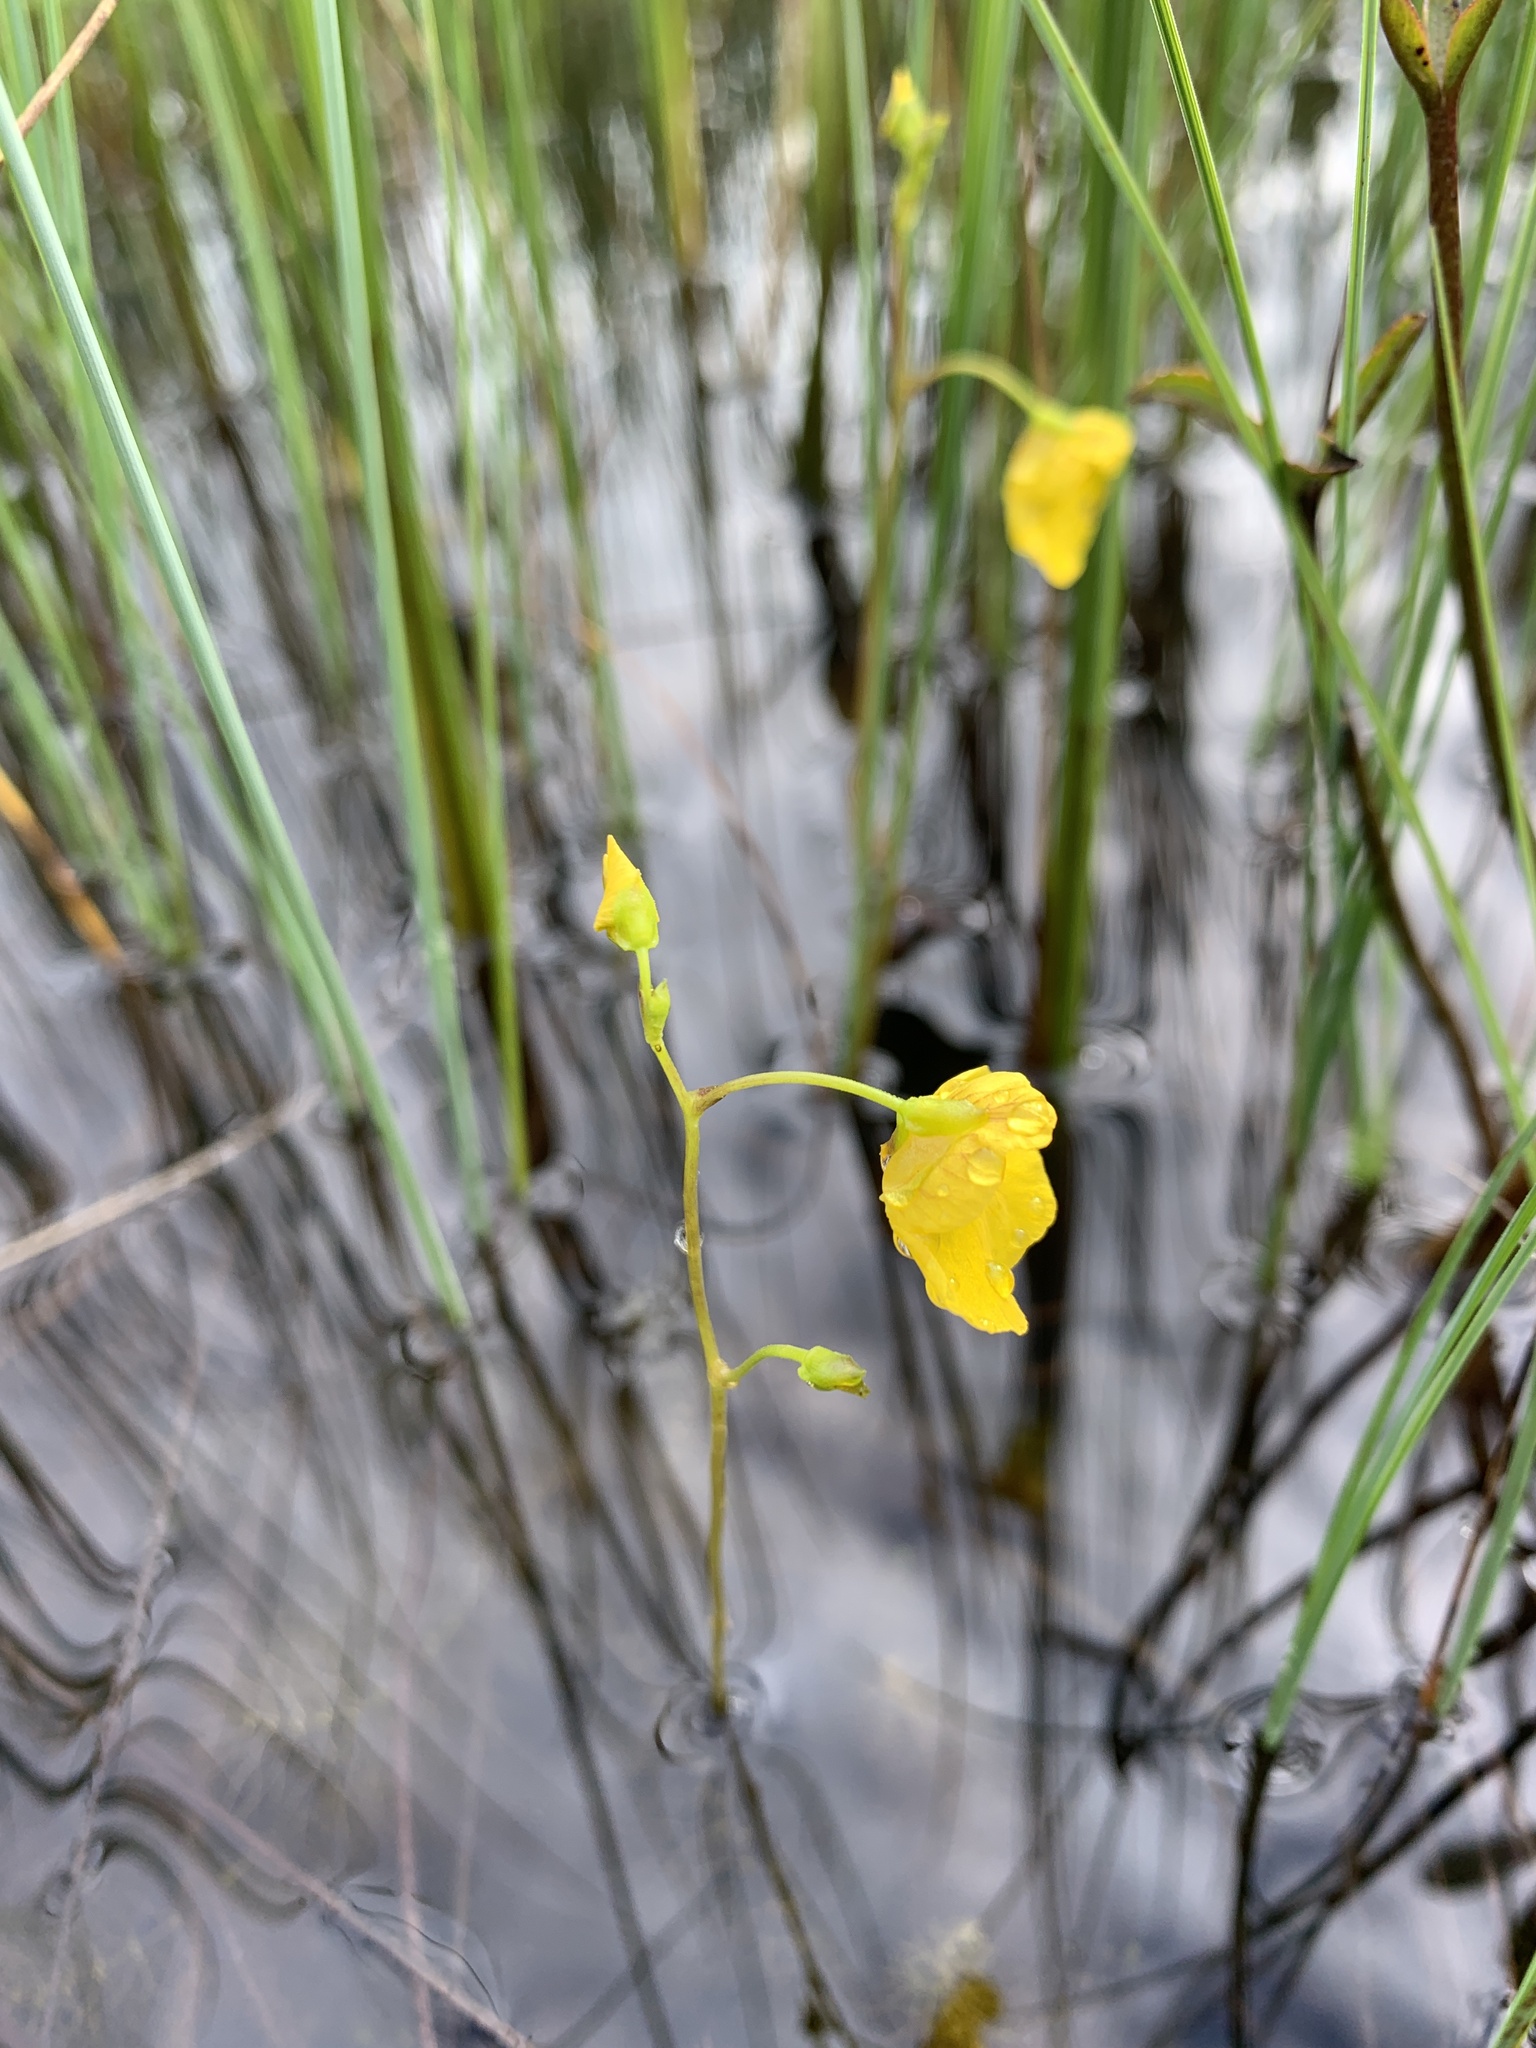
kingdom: Plantae
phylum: Tracheophyta
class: Magnoliopsida
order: Lamiales
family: Lentibulariaceae
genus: Utricularia
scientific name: Utricularia intermedia
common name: Intermediate bladderwort
